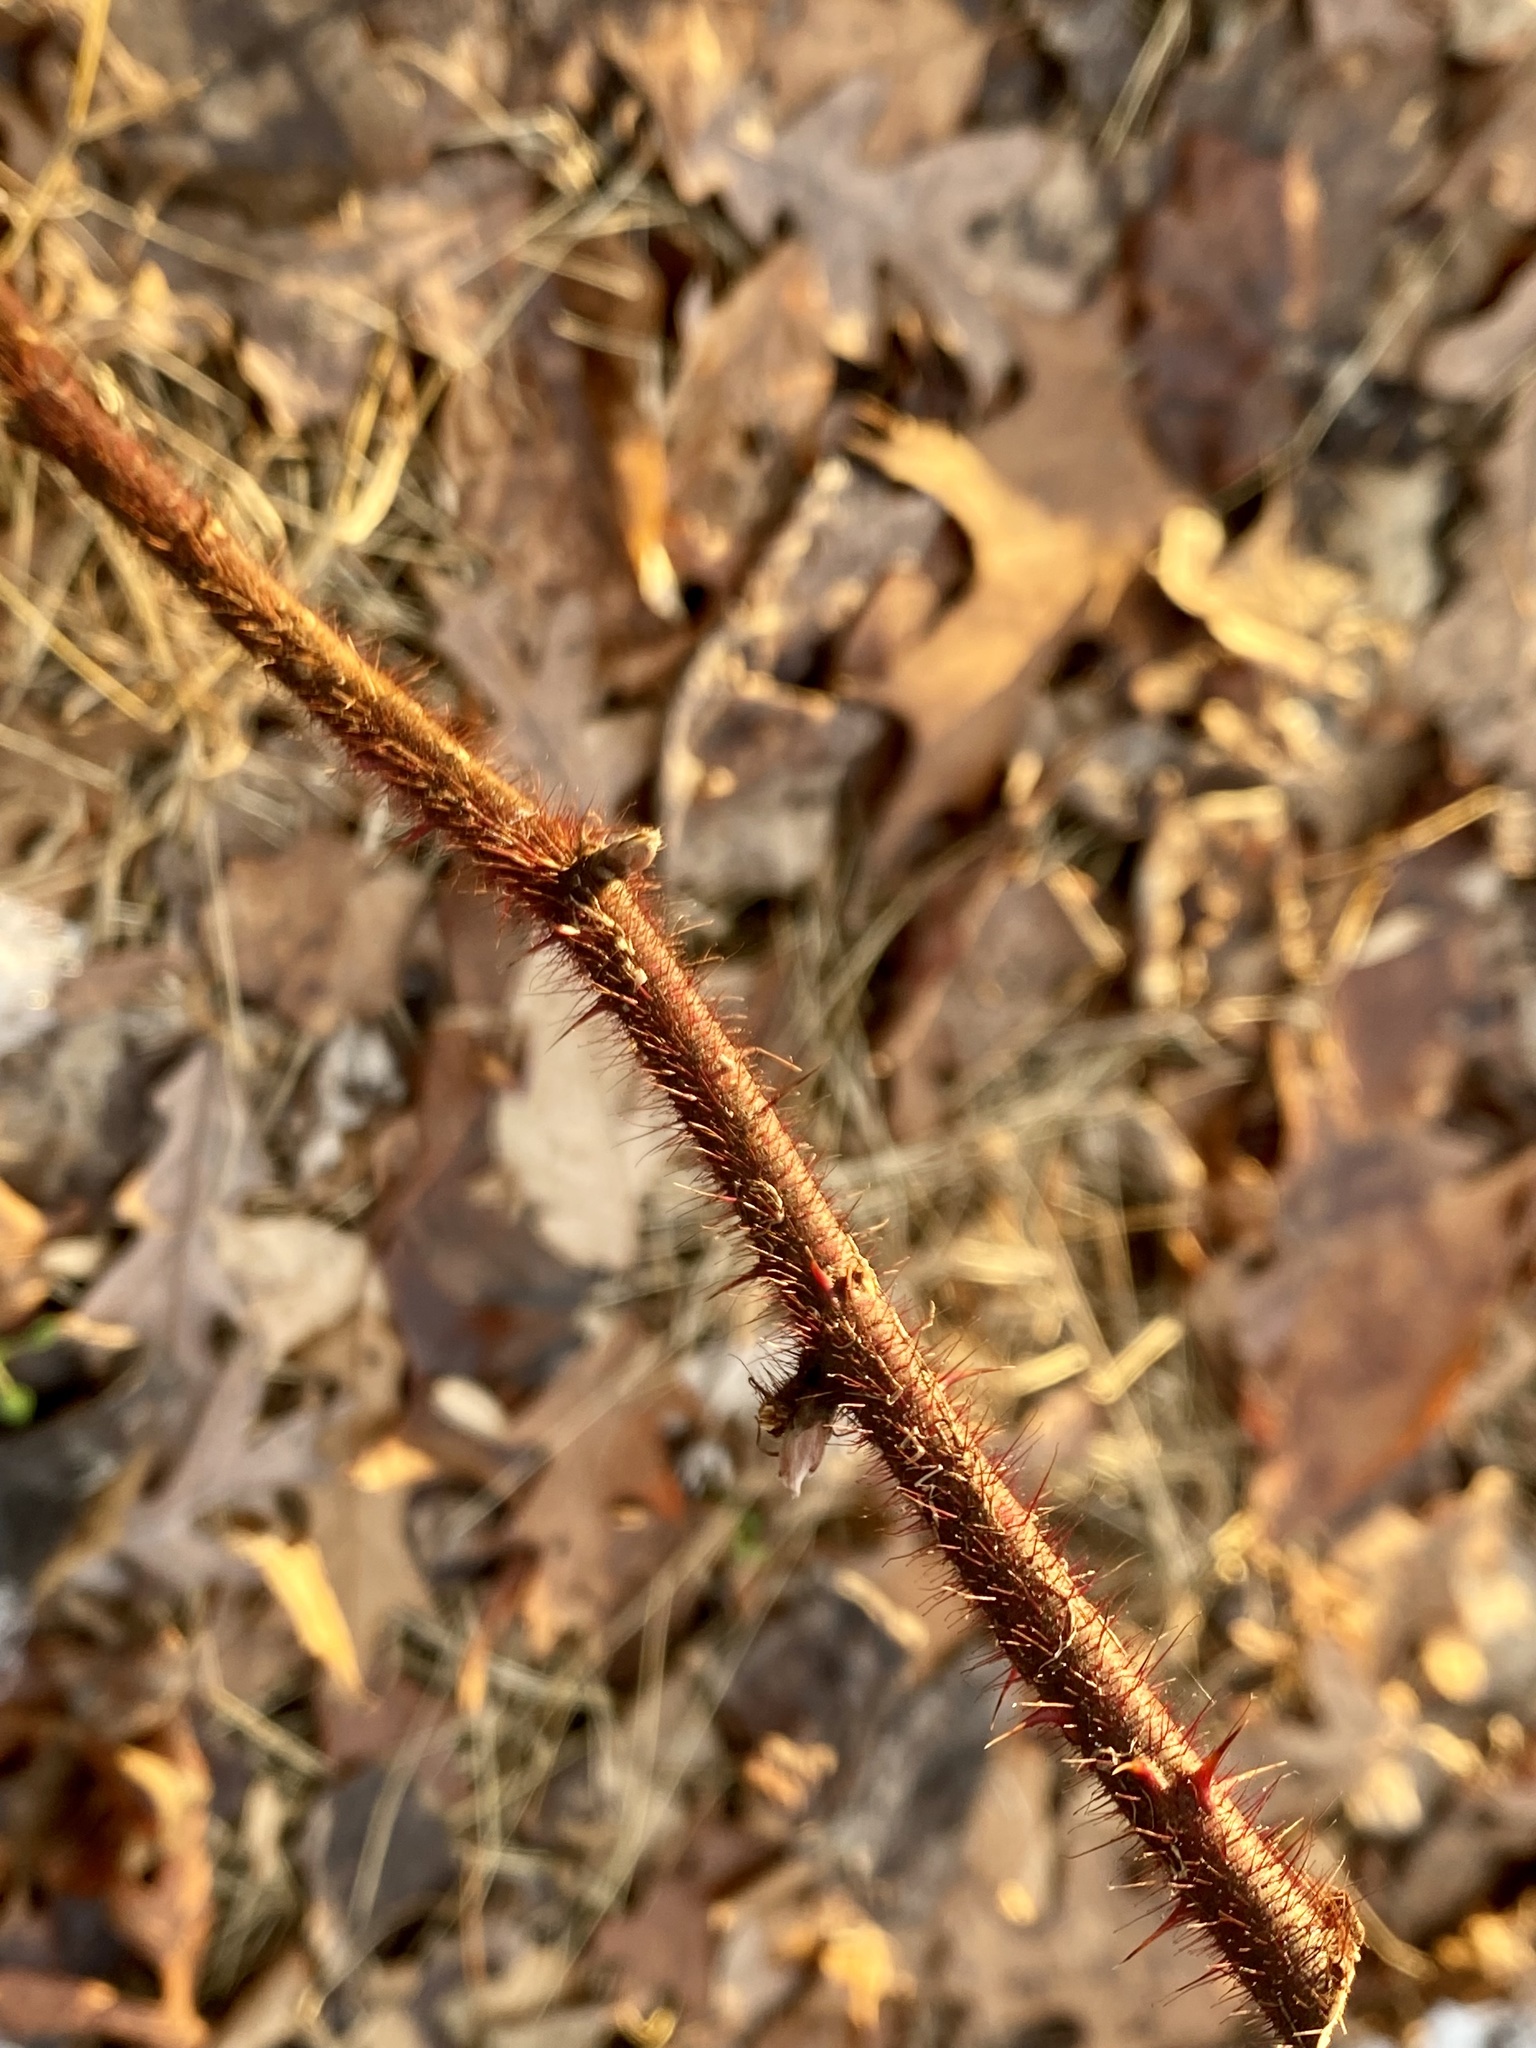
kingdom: Plantae
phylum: Tracheophyta
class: Magnoliopsida
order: Rosales
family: Rosaceae
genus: Rubus
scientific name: Rubus phoenicolasius
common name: Japanese wineberry
